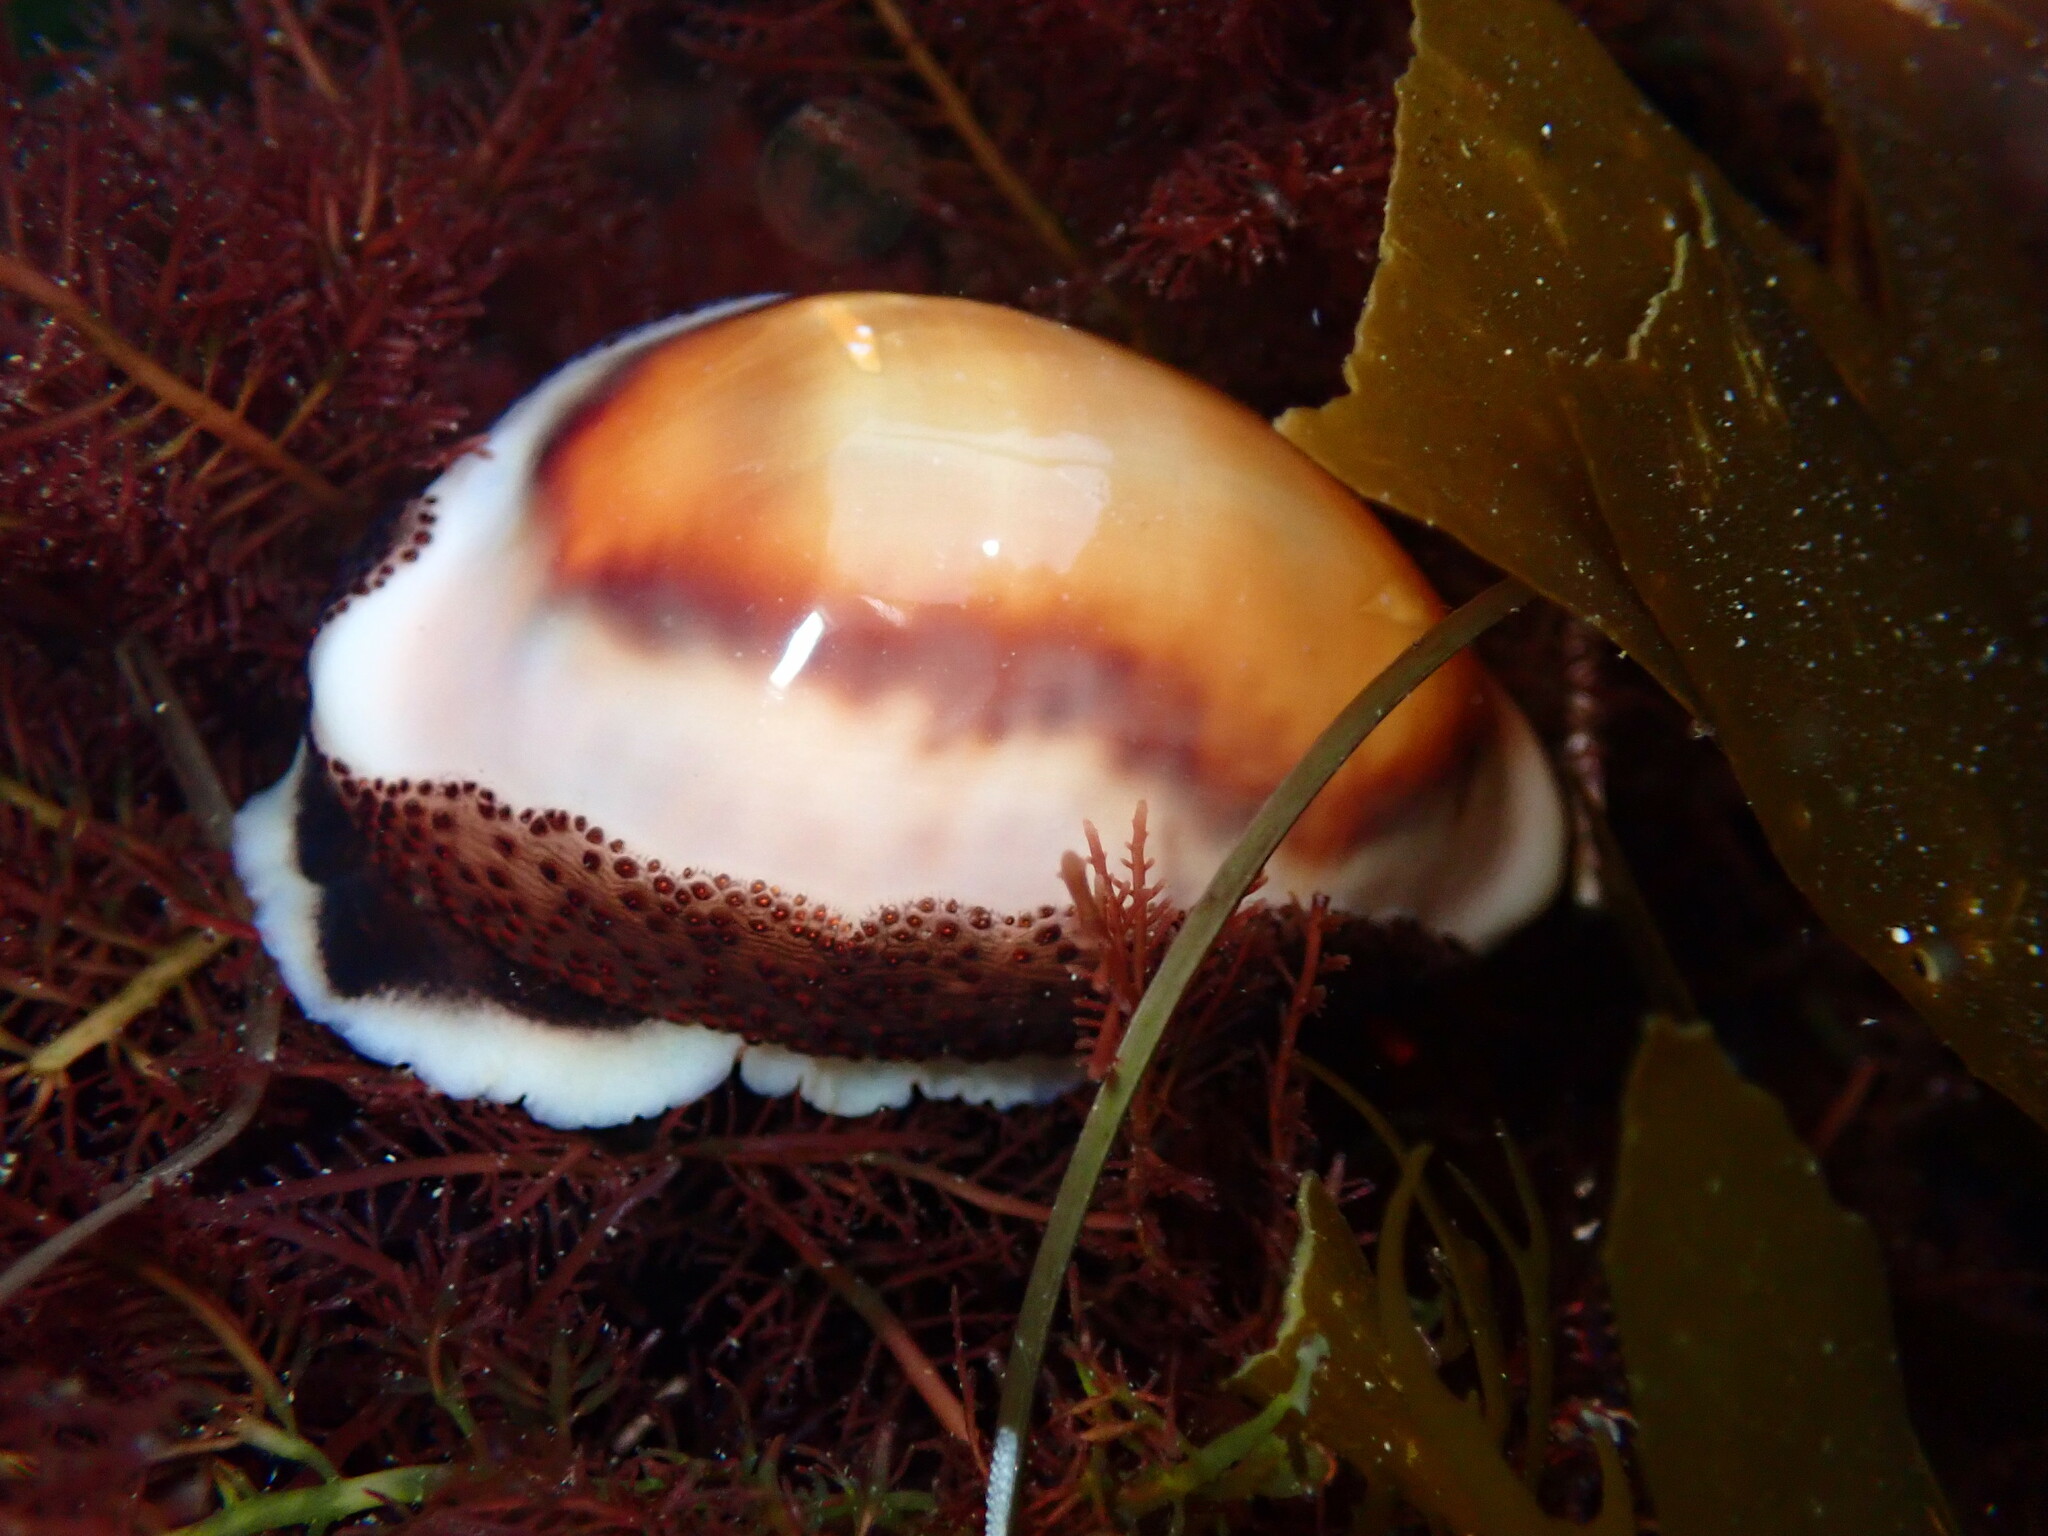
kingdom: Animalia
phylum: Mollusca
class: Gastropoda
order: Littorinimorpha
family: Cypraeidae
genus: Neobernaya
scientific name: Neobernaya spadicea
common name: Chestnut cowrie
